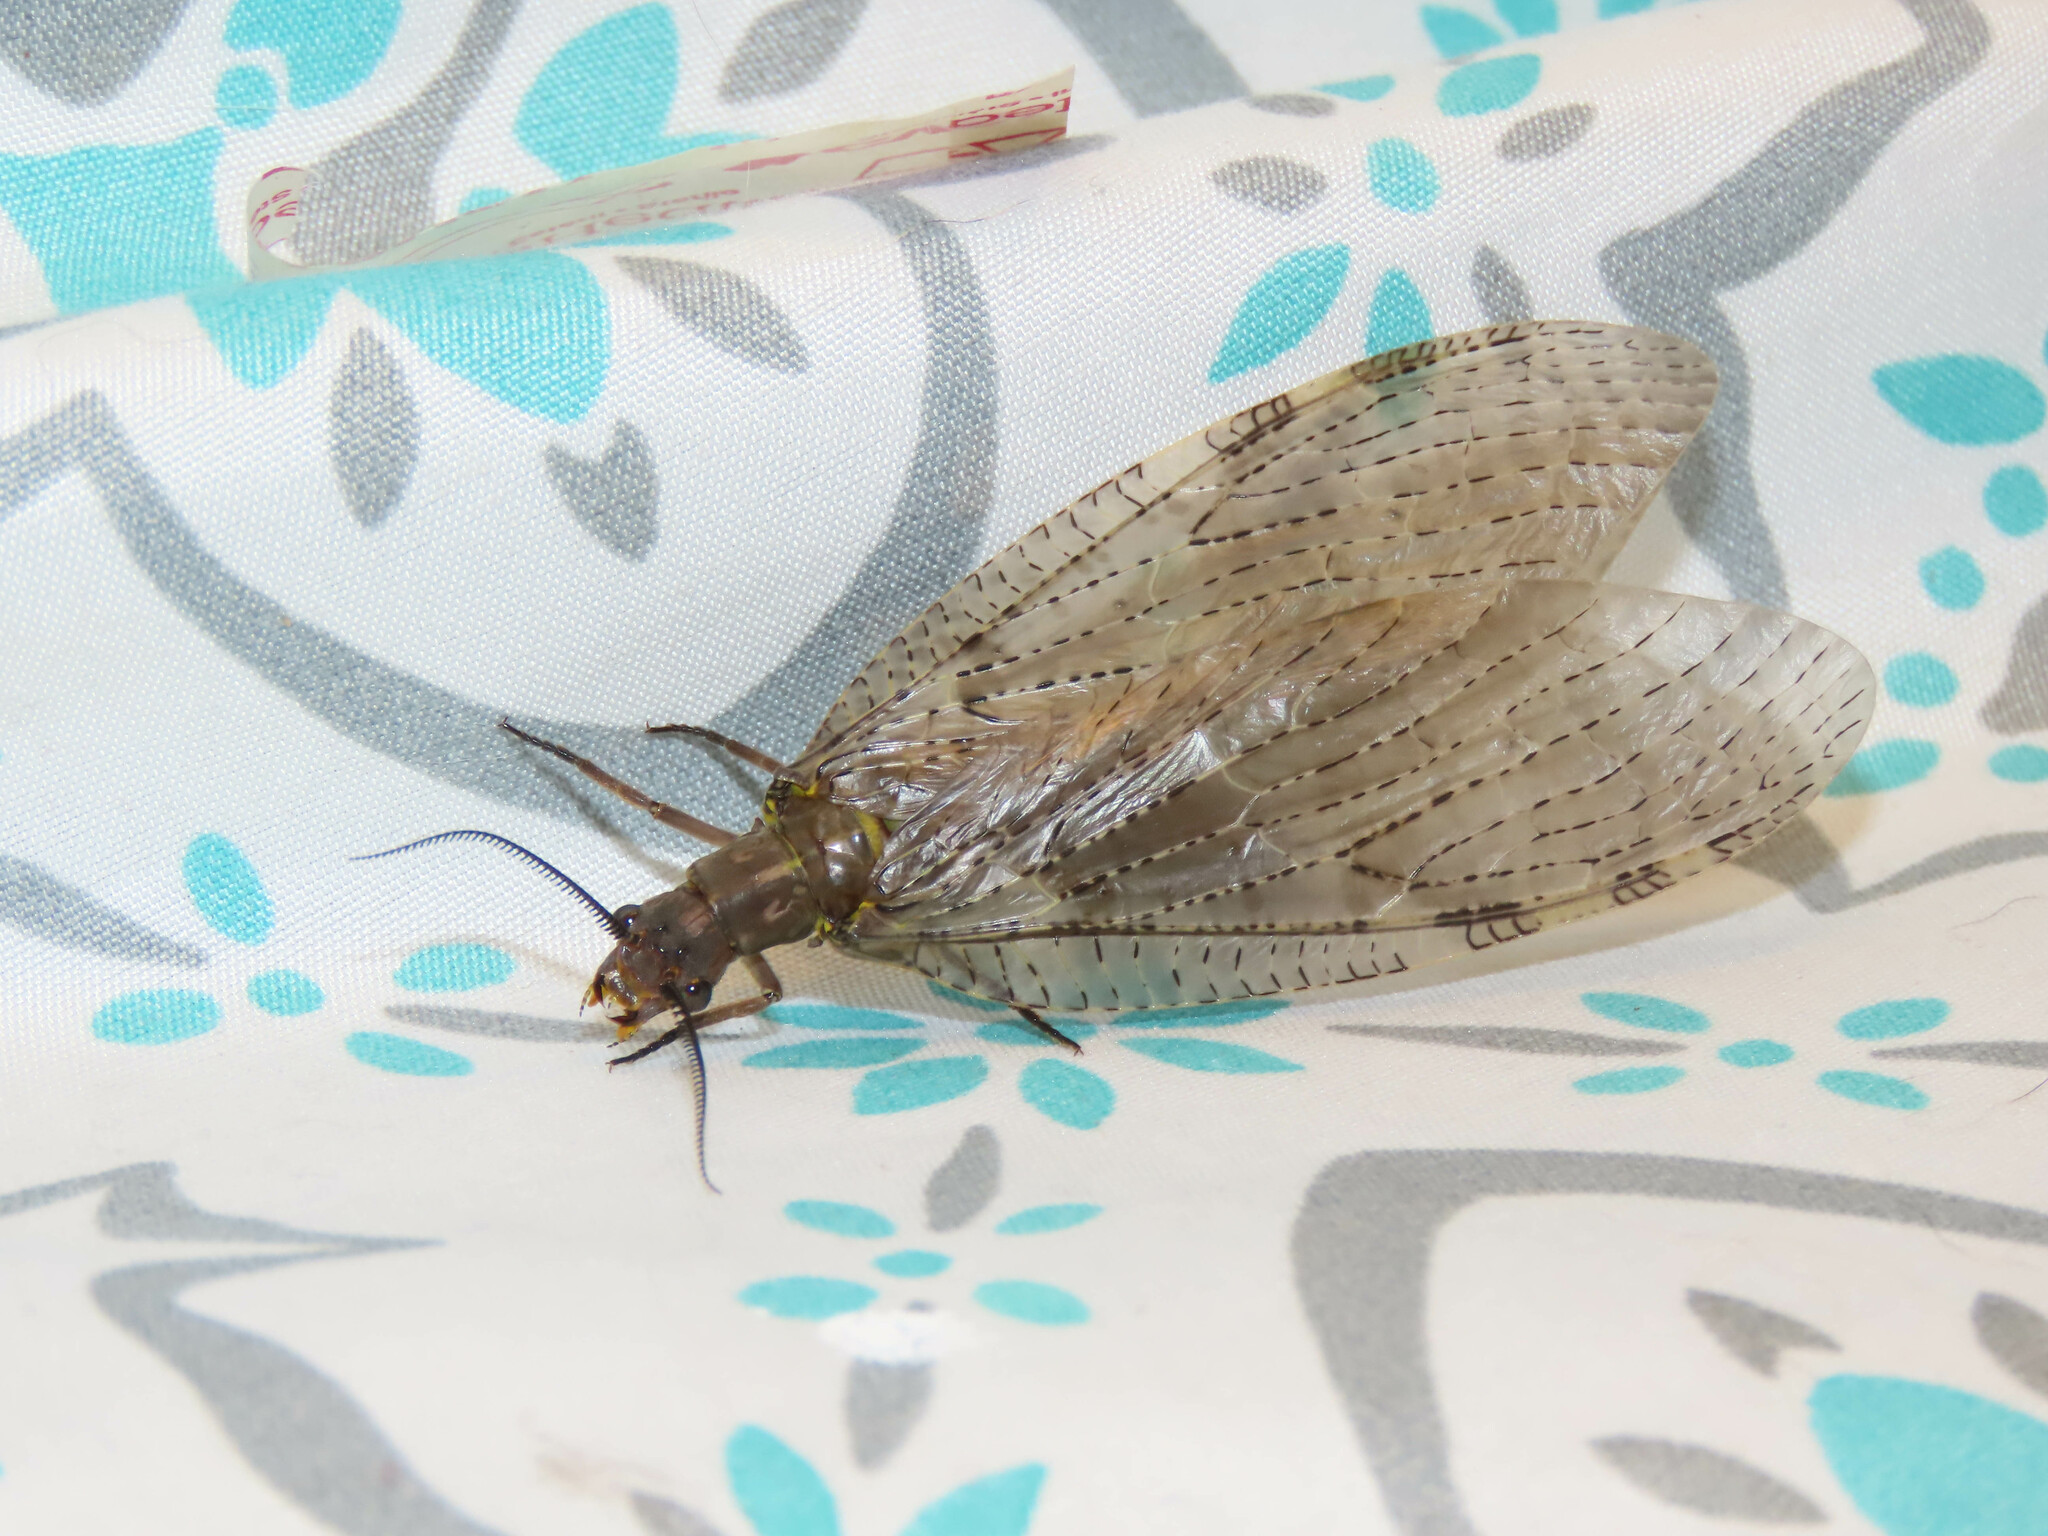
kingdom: Animalia
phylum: Arthropoda
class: Insecta
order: Megaloptera
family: Corydalidae
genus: Chauliodes
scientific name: Chauliodes pectinicornis
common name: Summer fishfly
